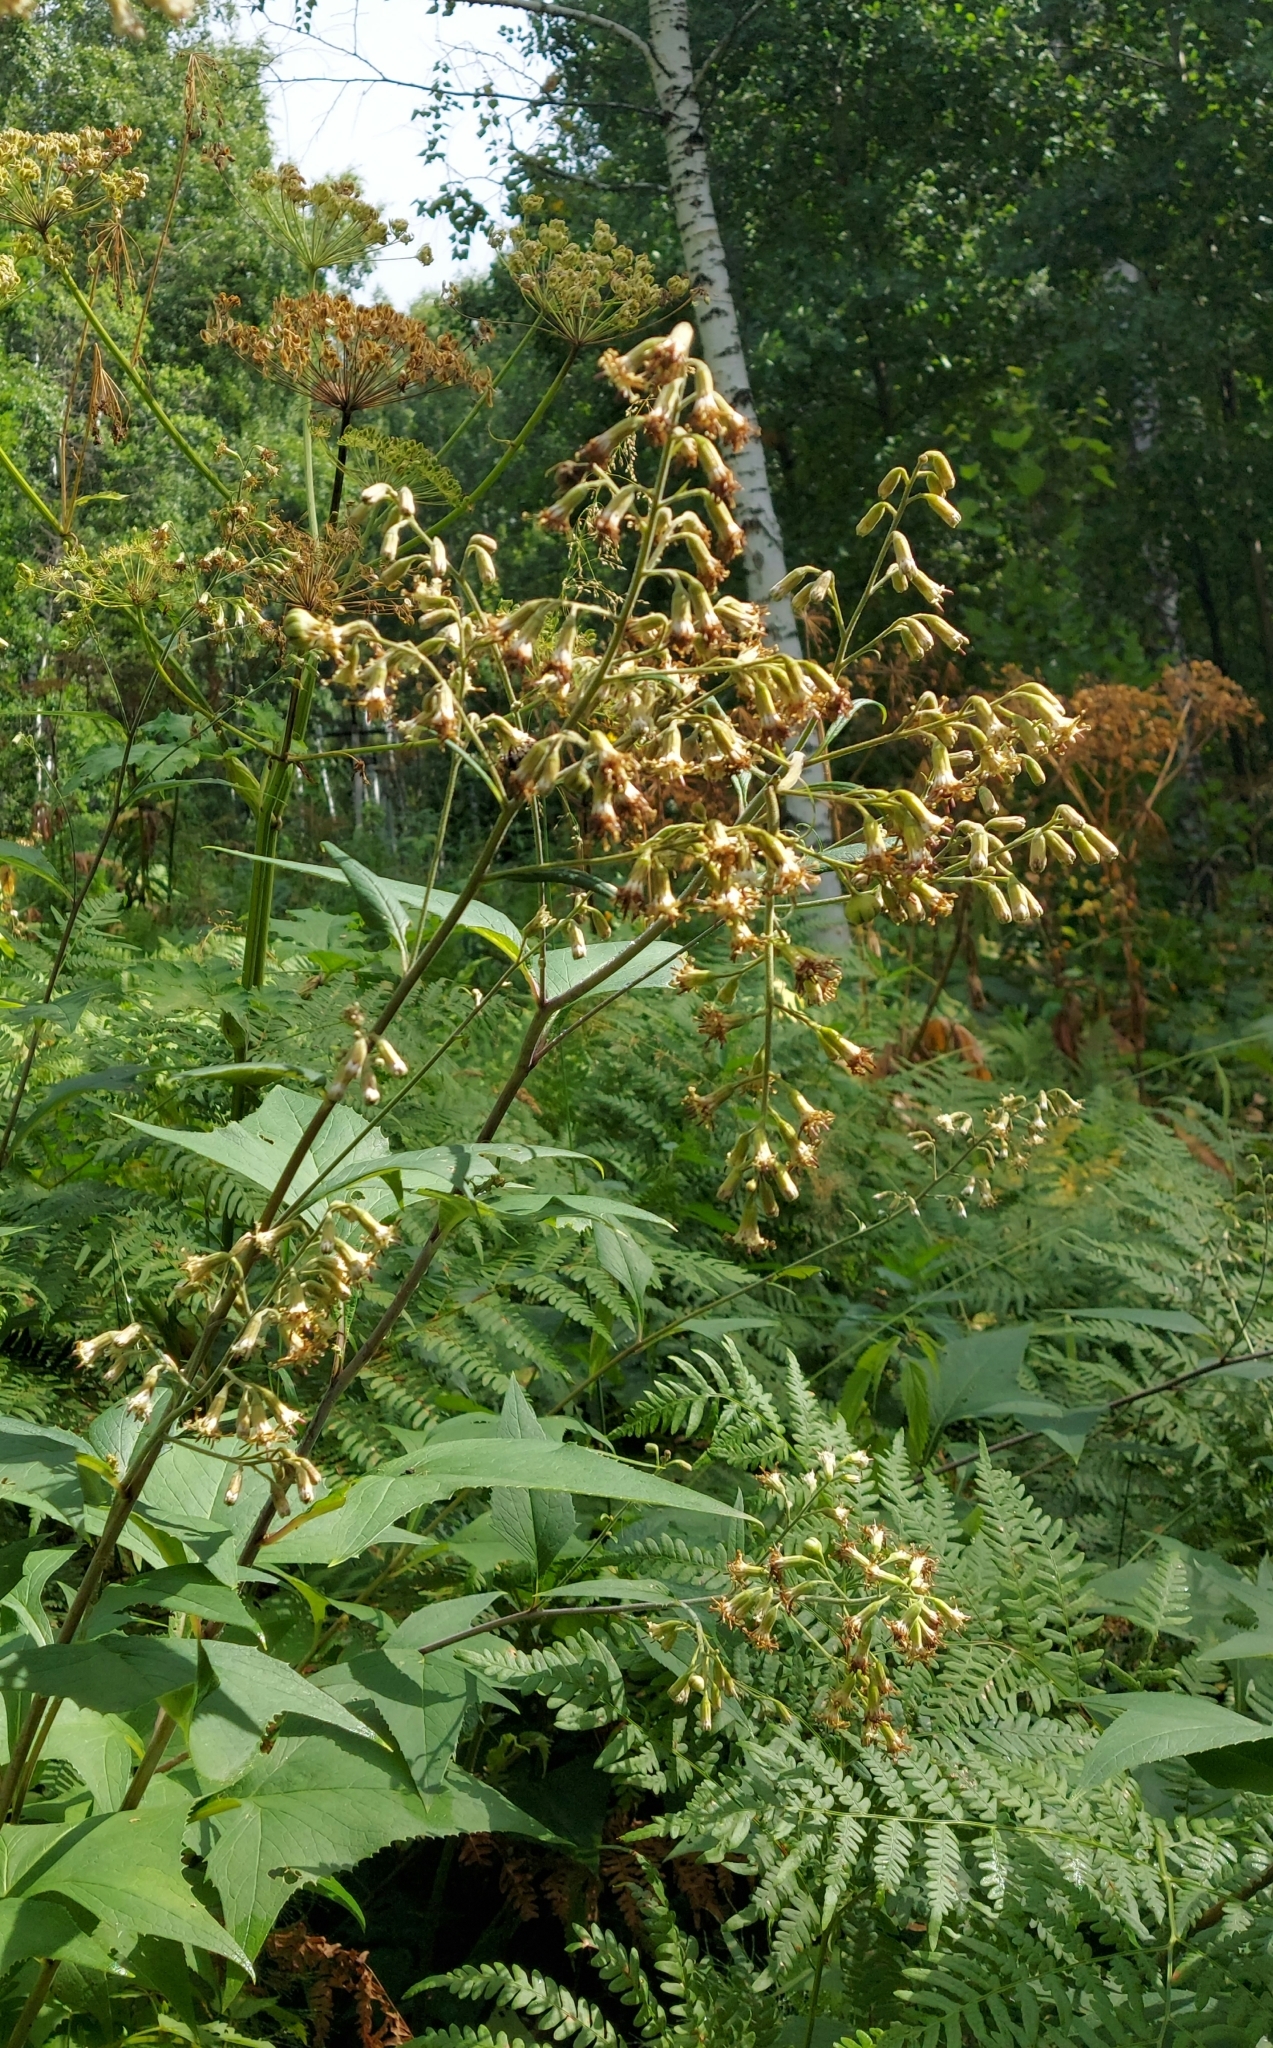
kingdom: Plantae
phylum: Tracheophyta
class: Magnoliopsida
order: Asterales
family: Asteraceae
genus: Parasenecio
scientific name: Parasenecio hastatus
